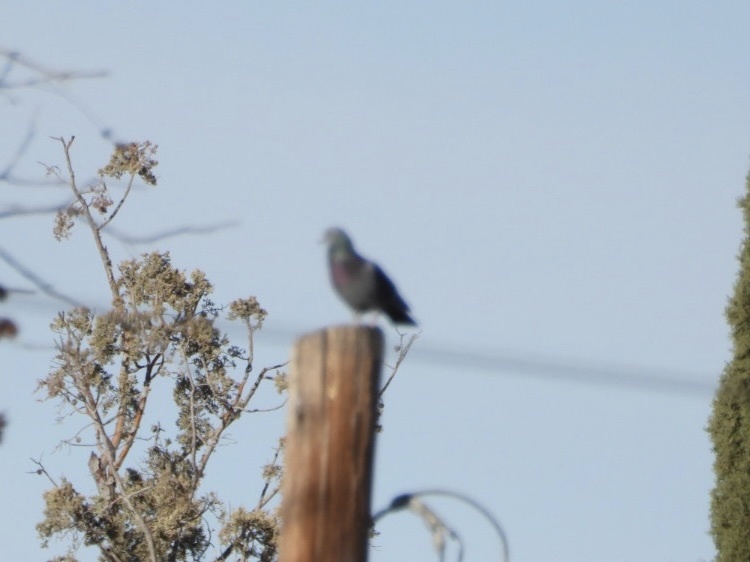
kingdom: Animalia
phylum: Chordata
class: Aves
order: Columbiformes
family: Columbidae
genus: Columba
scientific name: Columba livia
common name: Rock pigeon
